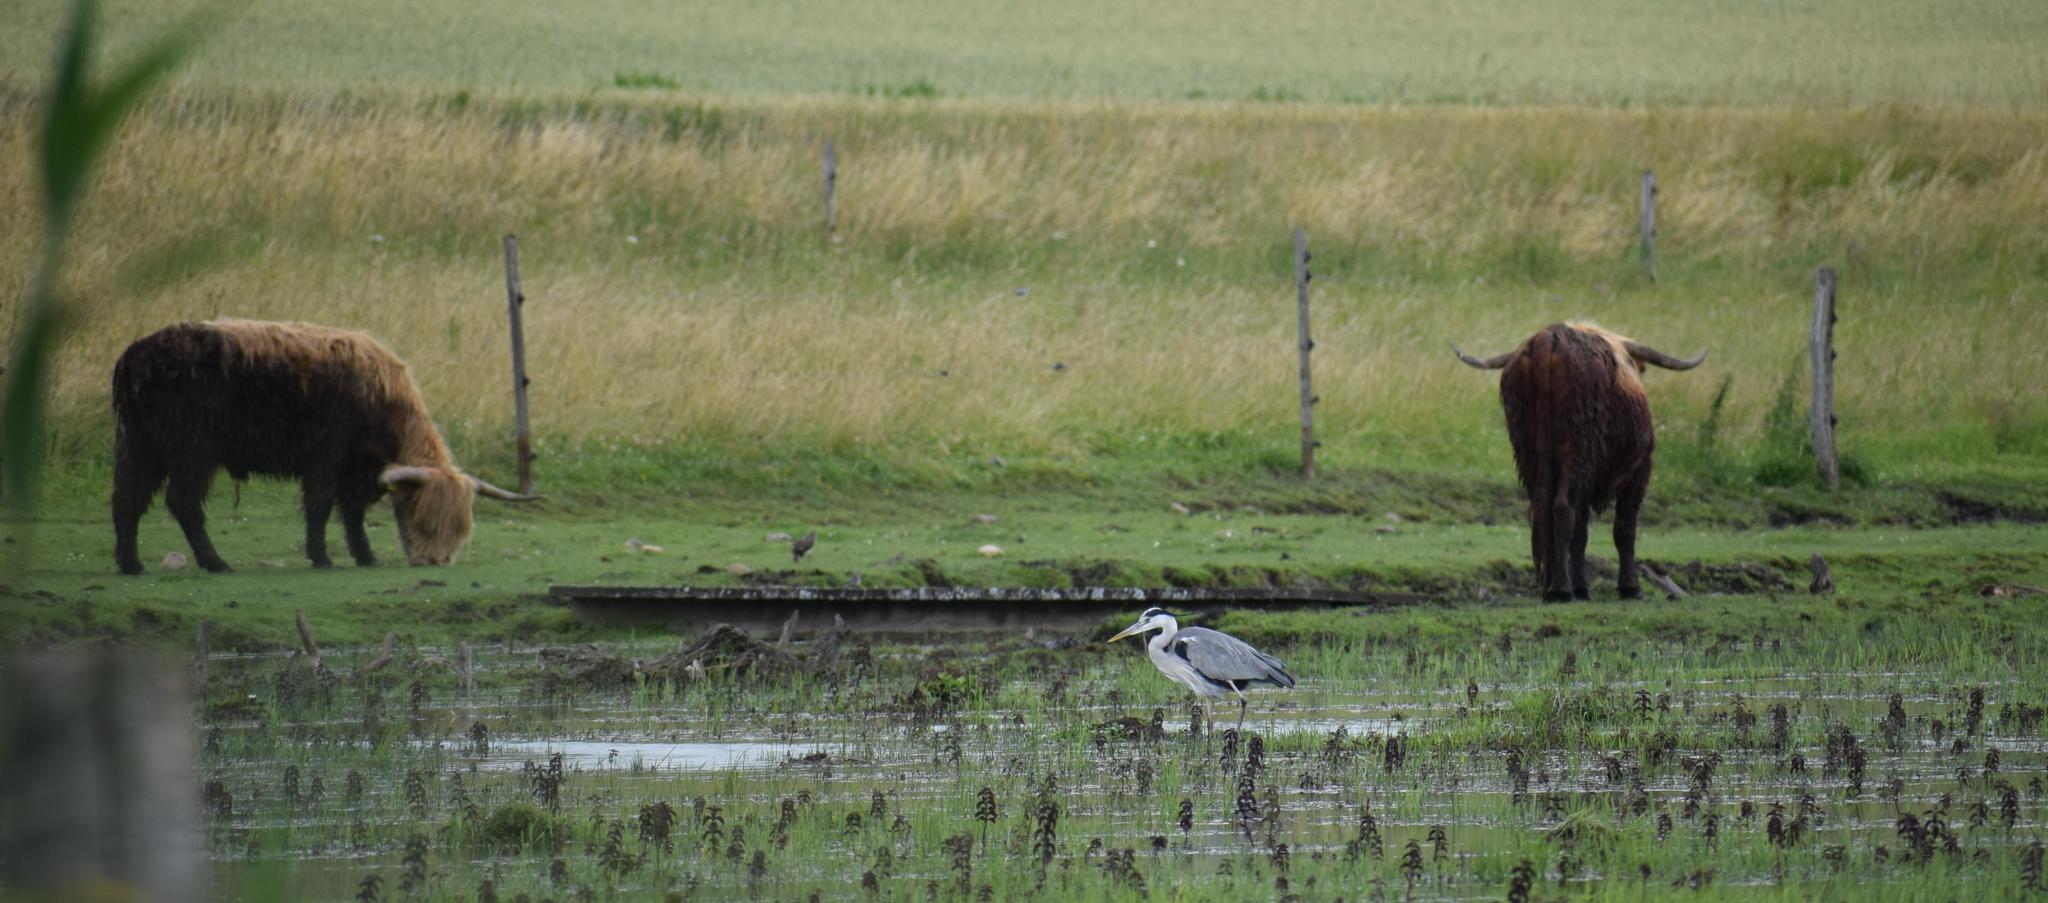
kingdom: Animalia
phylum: Chordata
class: Aves
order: Pelecaniformes
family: Ardeidae
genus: Ardea
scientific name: Ardea cinerea
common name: Grey heron
